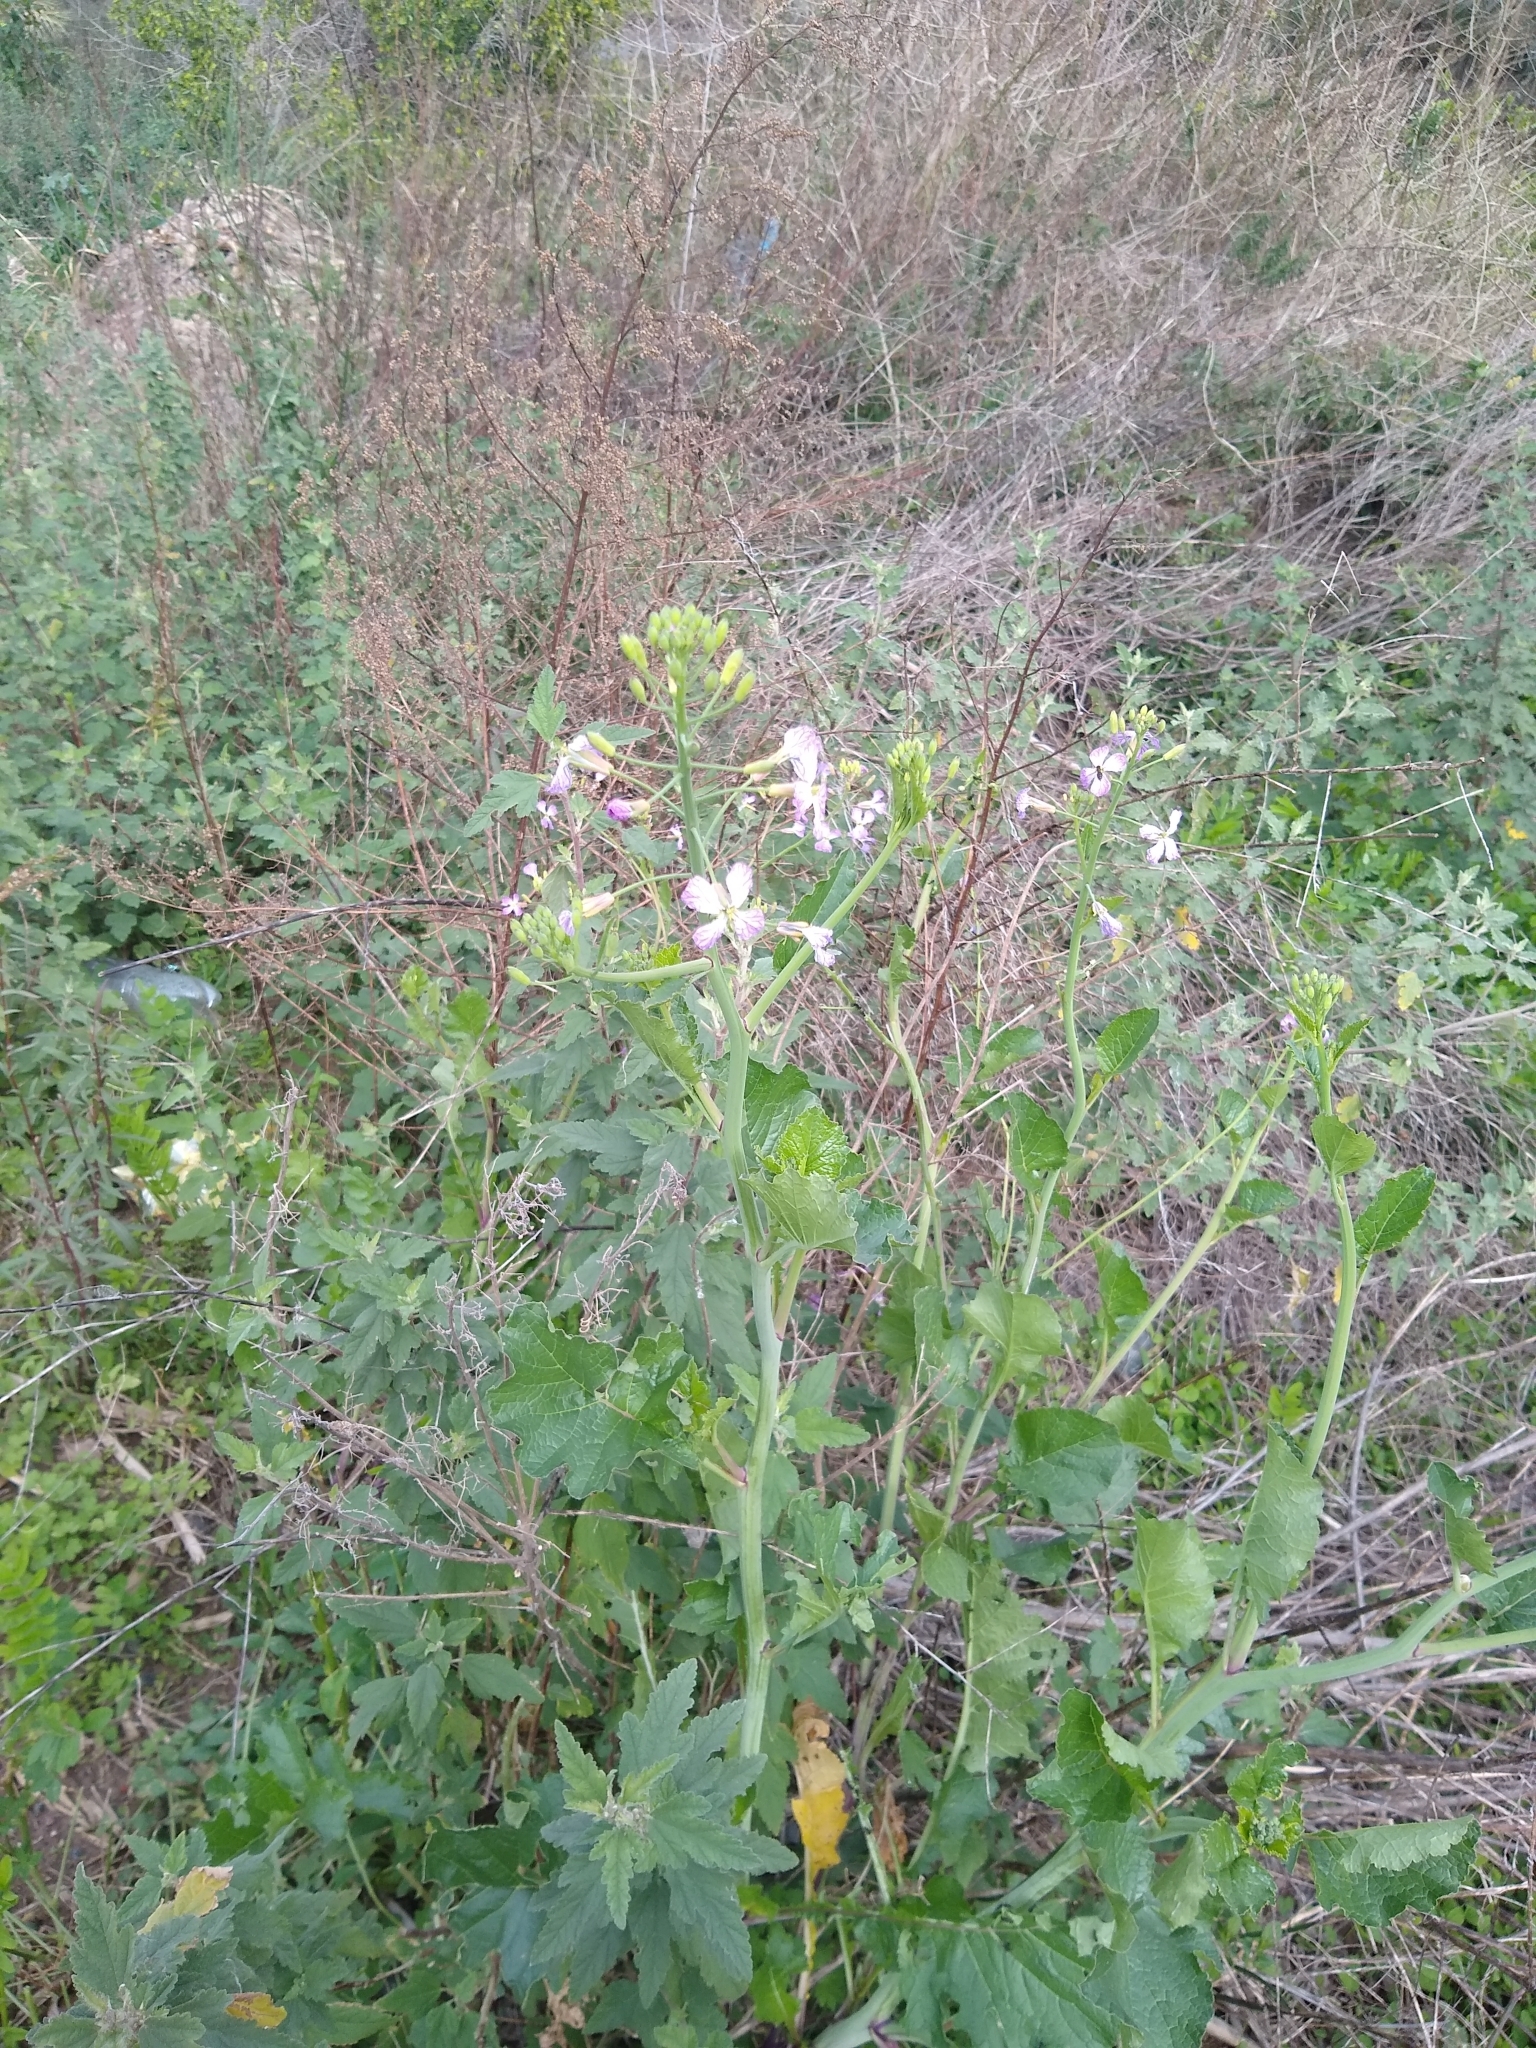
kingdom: Plantae
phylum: Tracheophyta
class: Magnoliopsida
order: Brassicales
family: Brassicaceae
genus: Raphanus
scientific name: Raphanus sativus
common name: Cultivated radish
